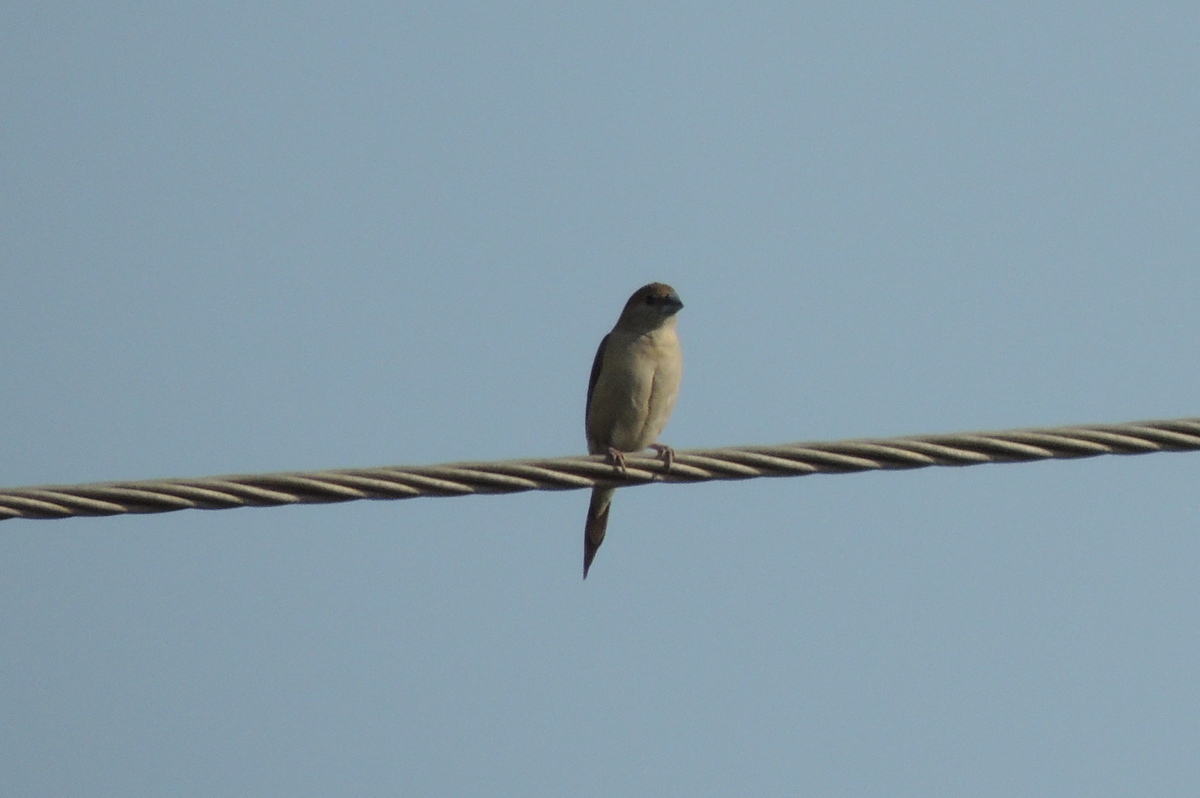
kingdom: Animalia
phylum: Chordata
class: Aves
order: Passeriformes
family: Estrildidae
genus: Euodice
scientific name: Euodice malabarica
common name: Indian silverbill
